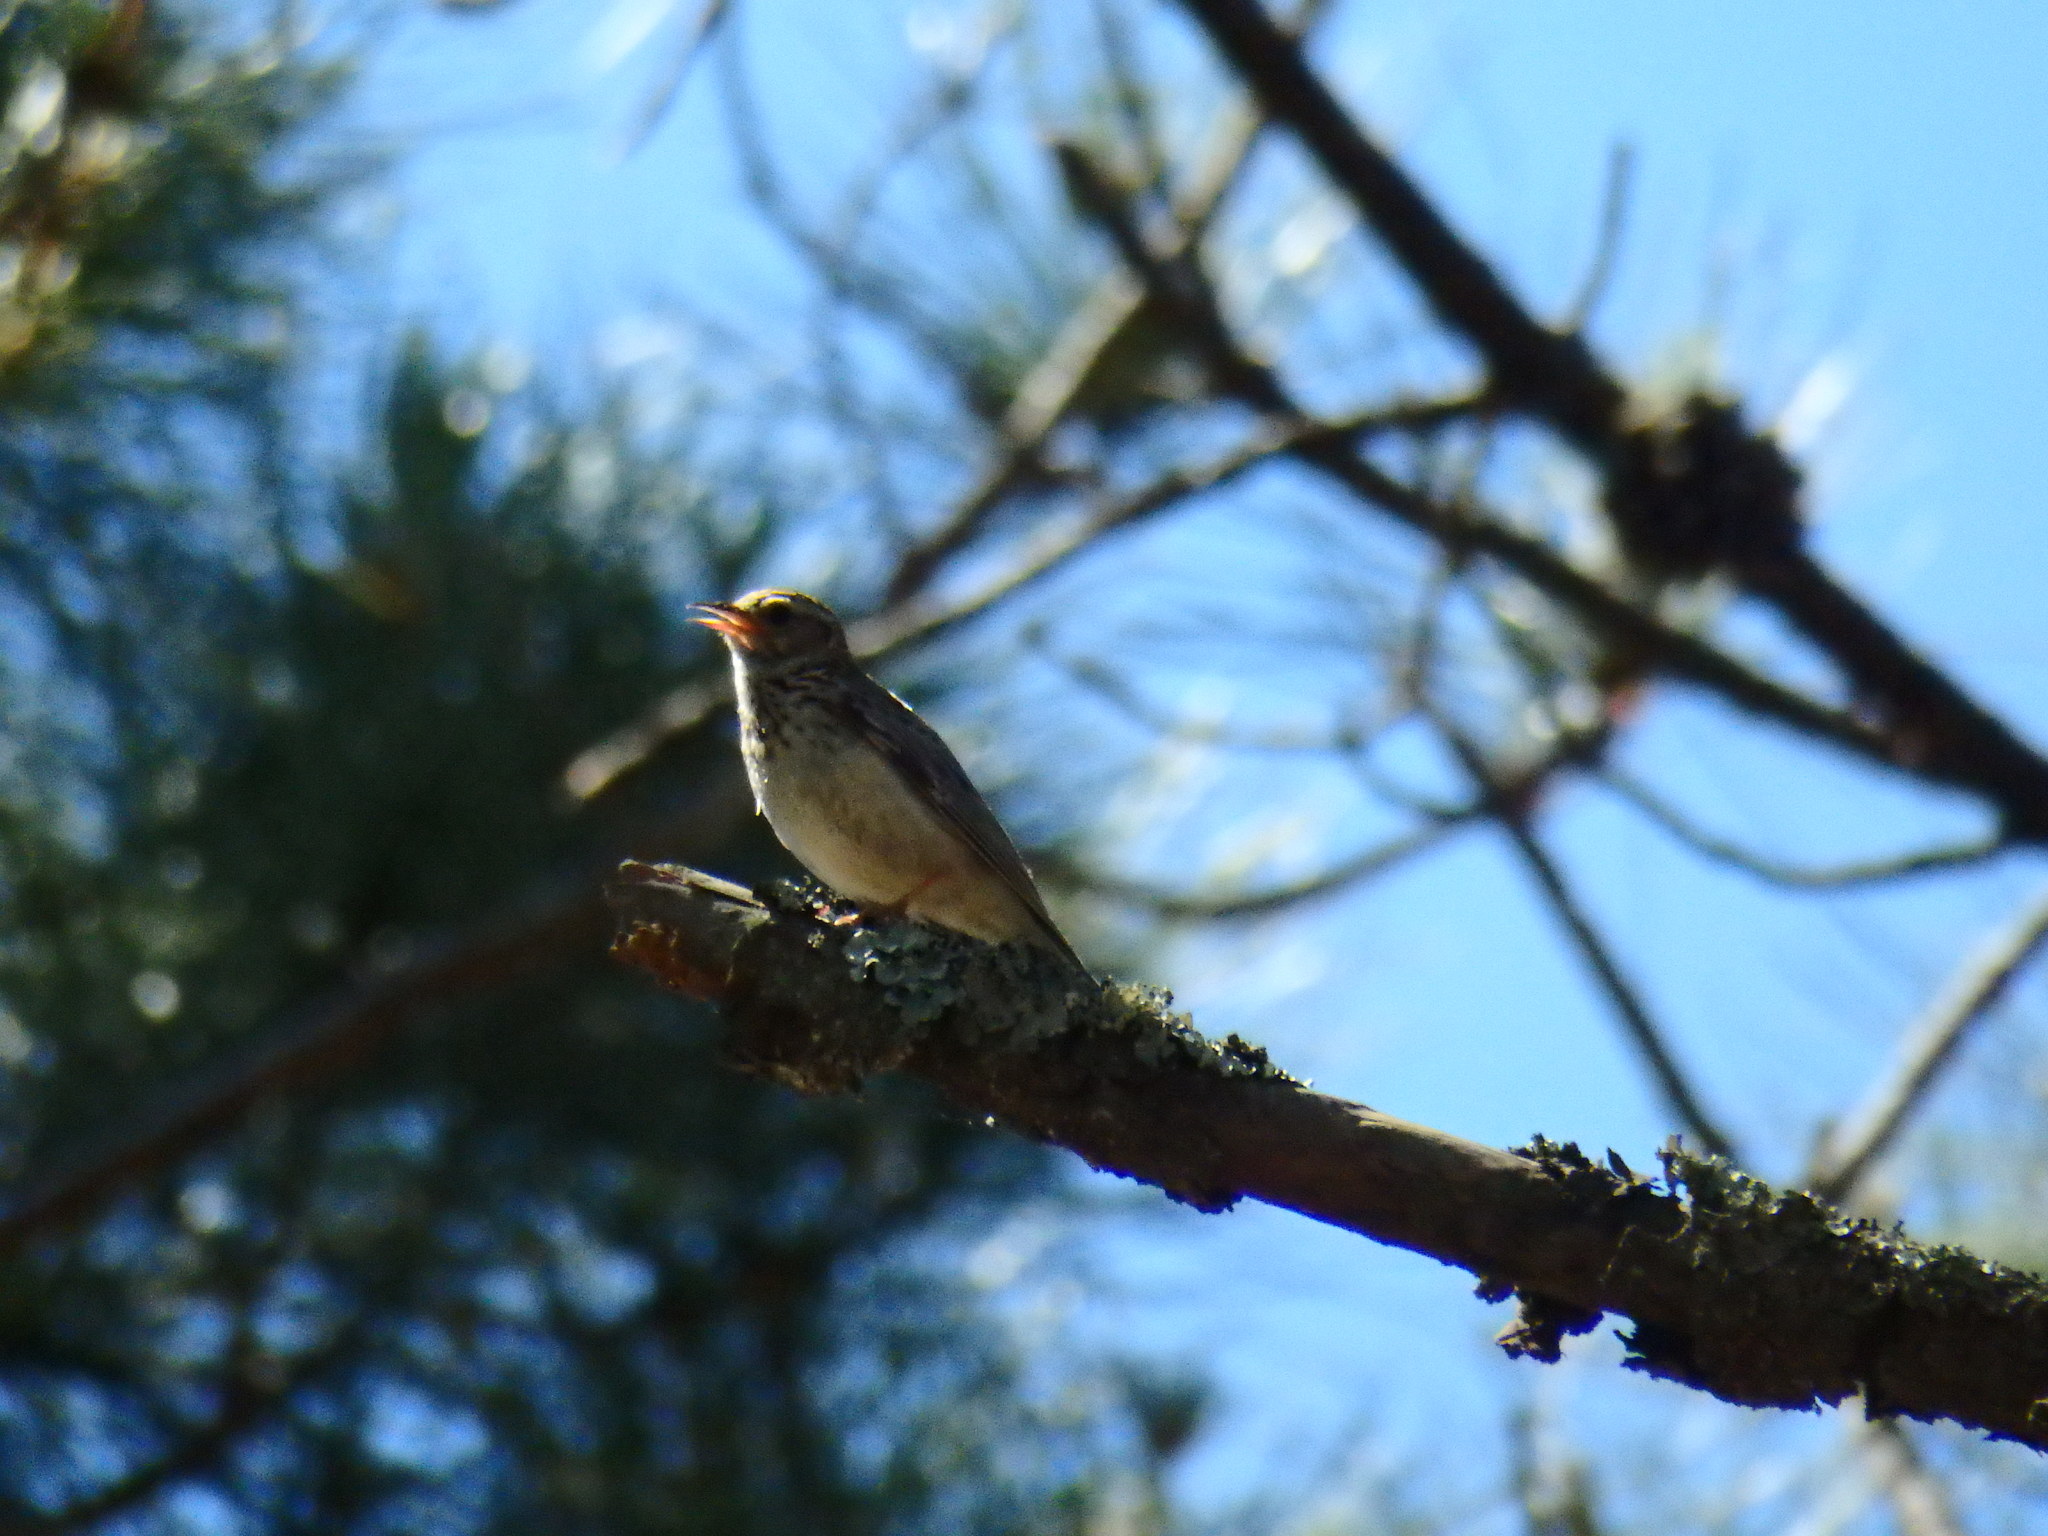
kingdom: Animalia
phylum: Chordata
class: Aves
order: Passeriformes
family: Alaudidae
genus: Lullula
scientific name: Lullula arborea
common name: Woodlark
